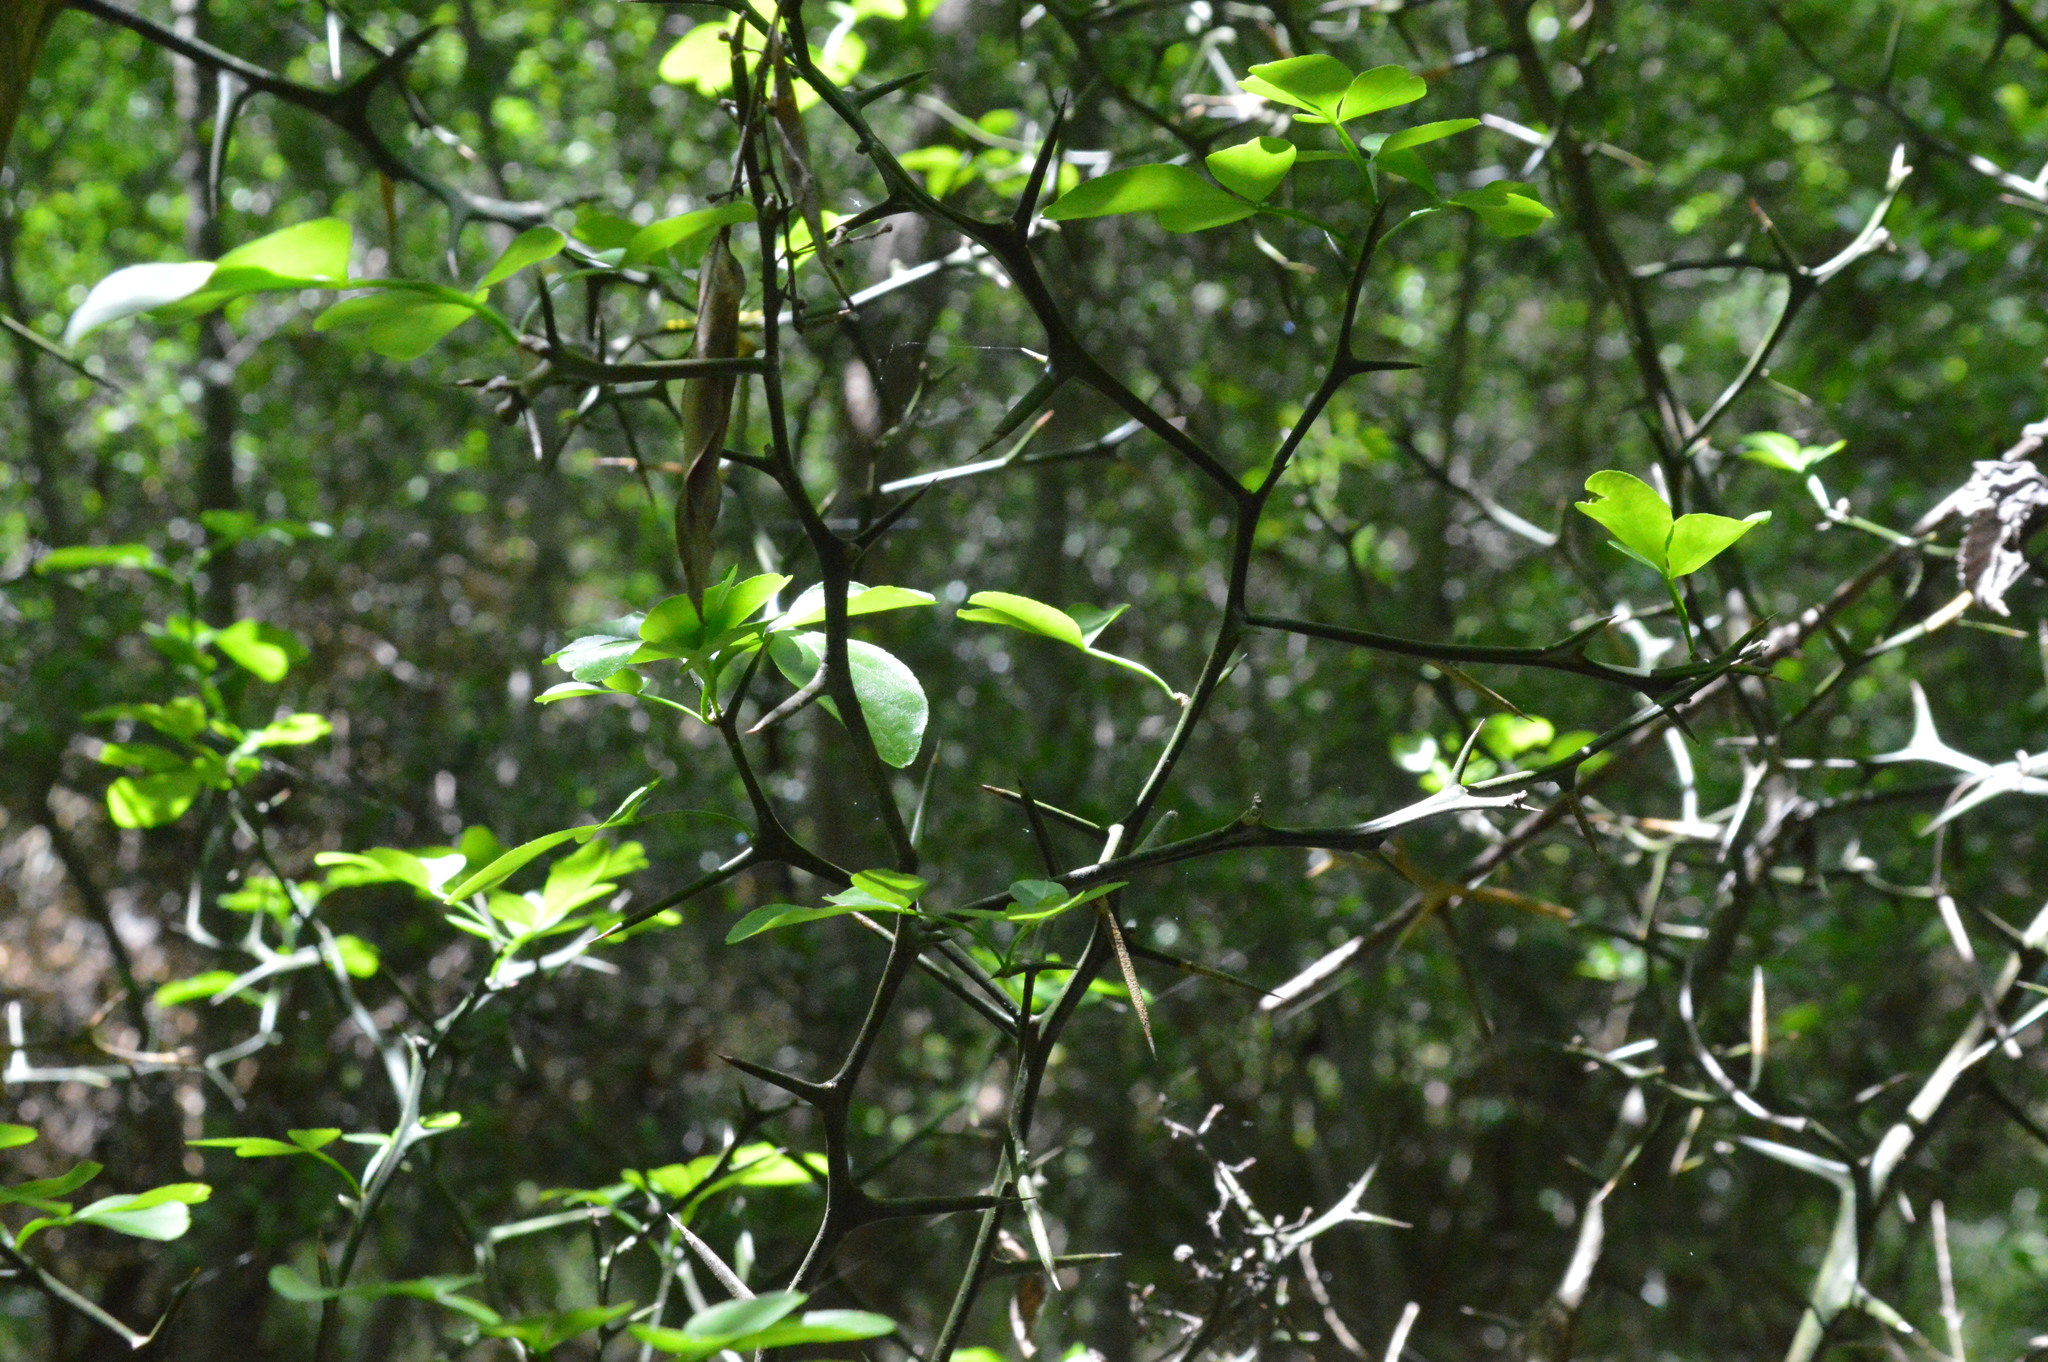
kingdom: Plantae
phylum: Tracheophyta
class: Magnoliopsida
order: Sapindales
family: Rutaceae
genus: Citrus
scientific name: Citrus trifoliata
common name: Japanese bitter-orange
